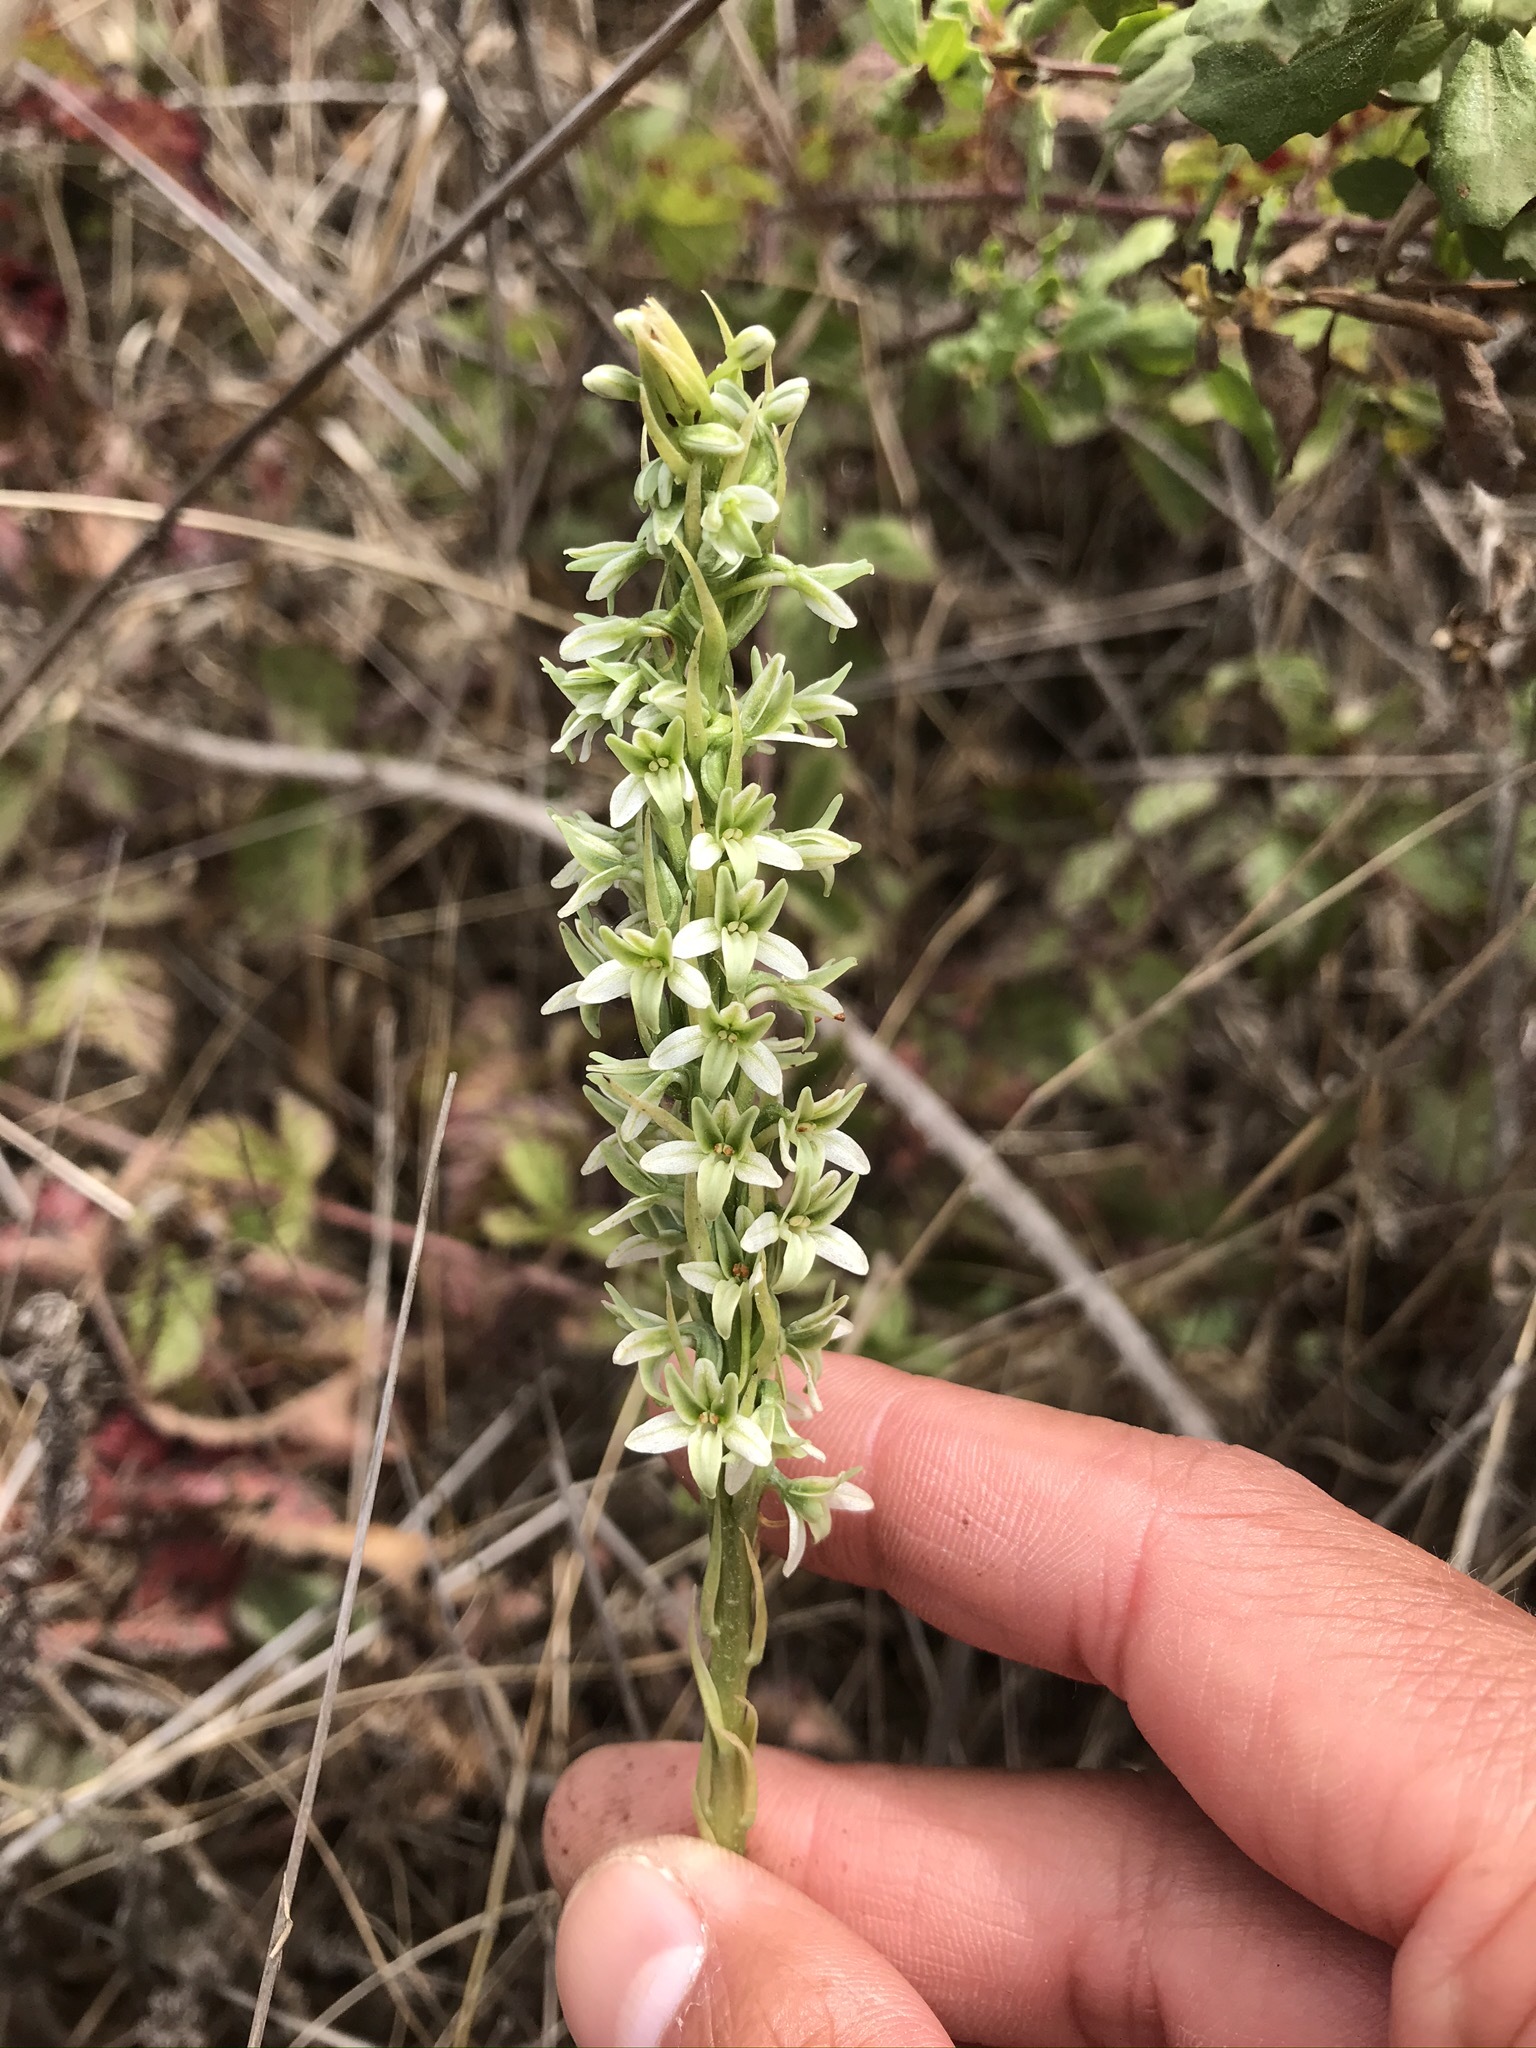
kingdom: Plantae
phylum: Tracheophyta
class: Liliopsida
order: Asparagales
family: Orchidaceae
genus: Platanthera
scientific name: Platanthera elegans
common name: Coast piperia
